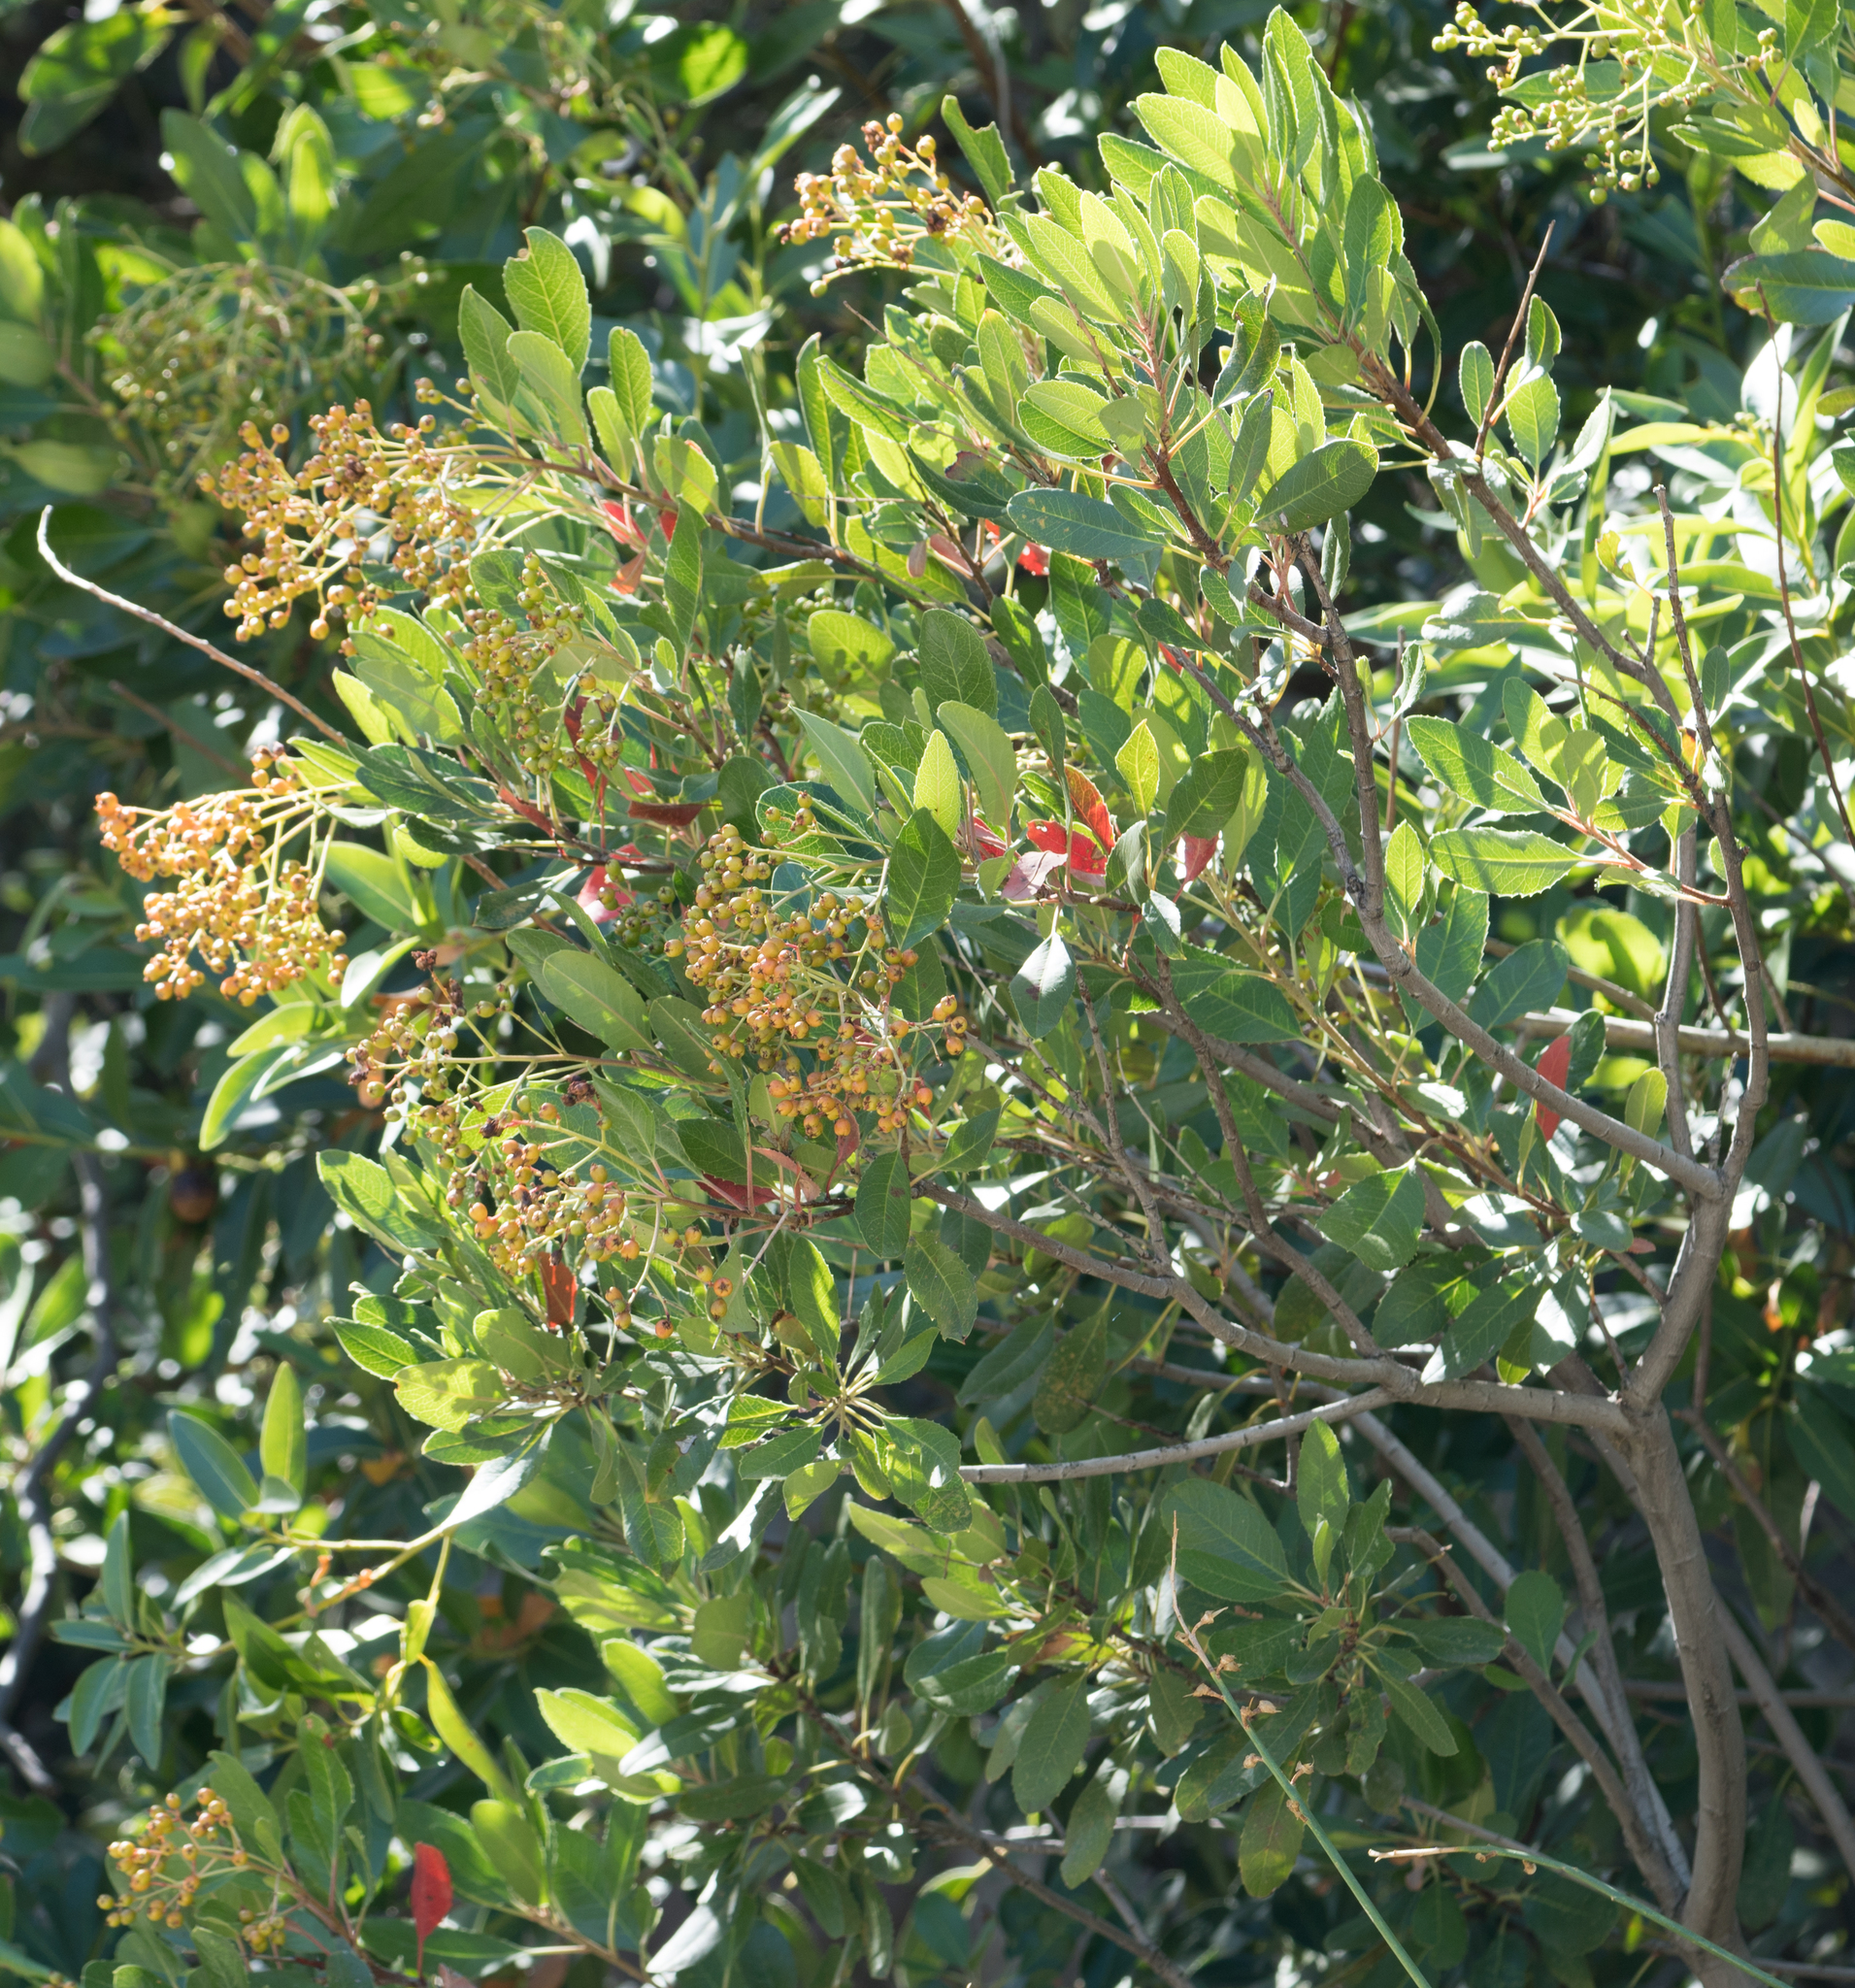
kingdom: Plantae
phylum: Tracheophyta
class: Magnoliopsida
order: Rosales
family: Rosaceae
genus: Heteromeles
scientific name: Heteromeles arbutifolia
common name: California-holly
